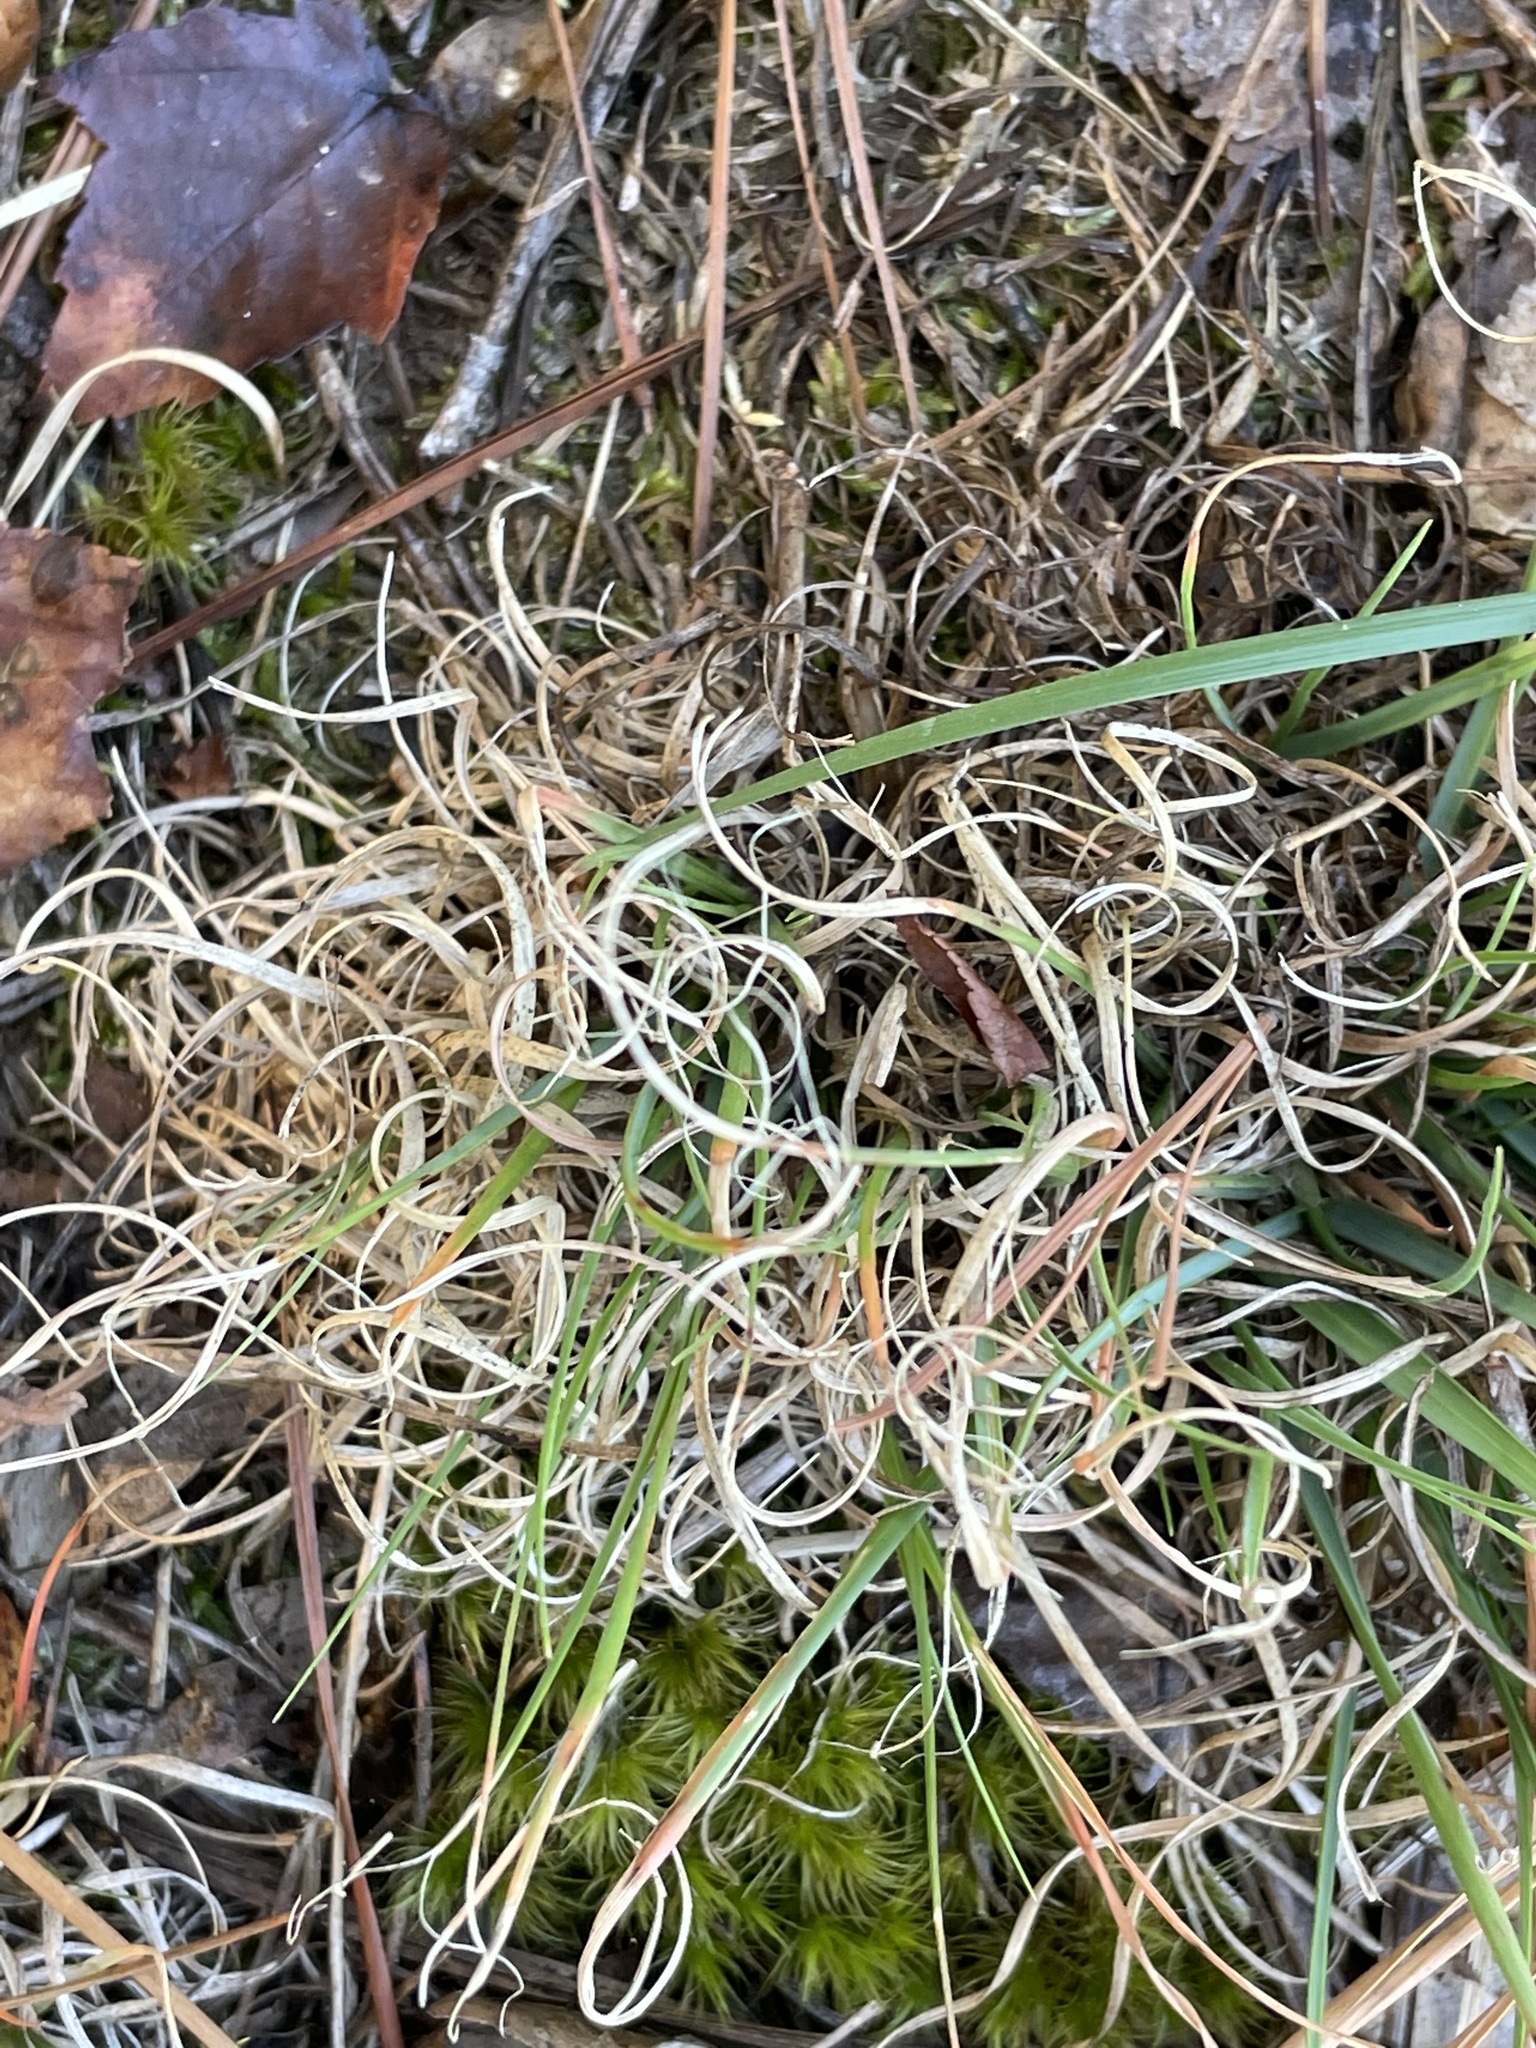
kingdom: Plantae
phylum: Tracheophyta
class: Liliopsida
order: Poales
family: Poaceae
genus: Danthonia
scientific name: Danthonia spicata
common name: Common wild oatgrass
